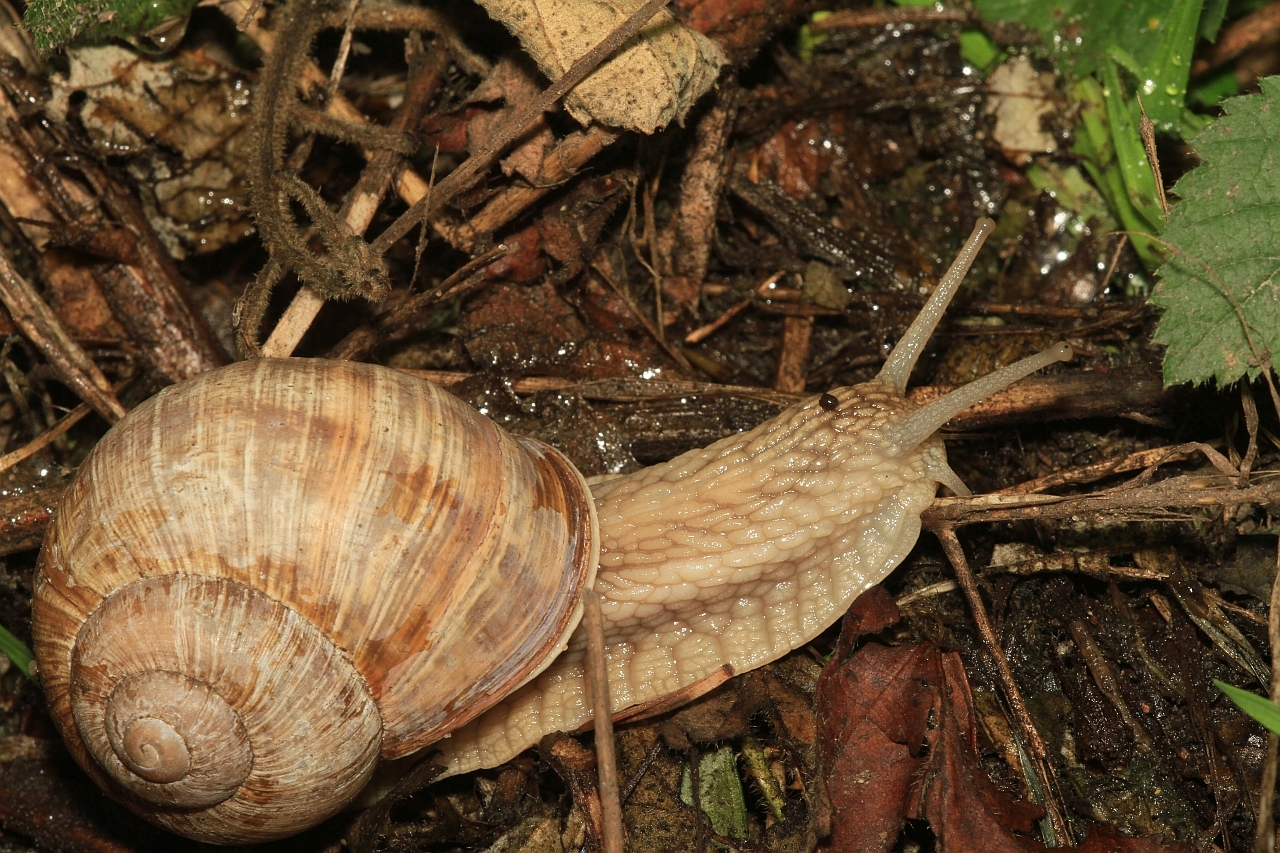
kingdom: Animalia
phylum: Mollusca
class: Gastropoda
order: Stylommatophora
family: Helicidae
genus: Helix
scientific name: Helix pomatia
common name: Roman snail
